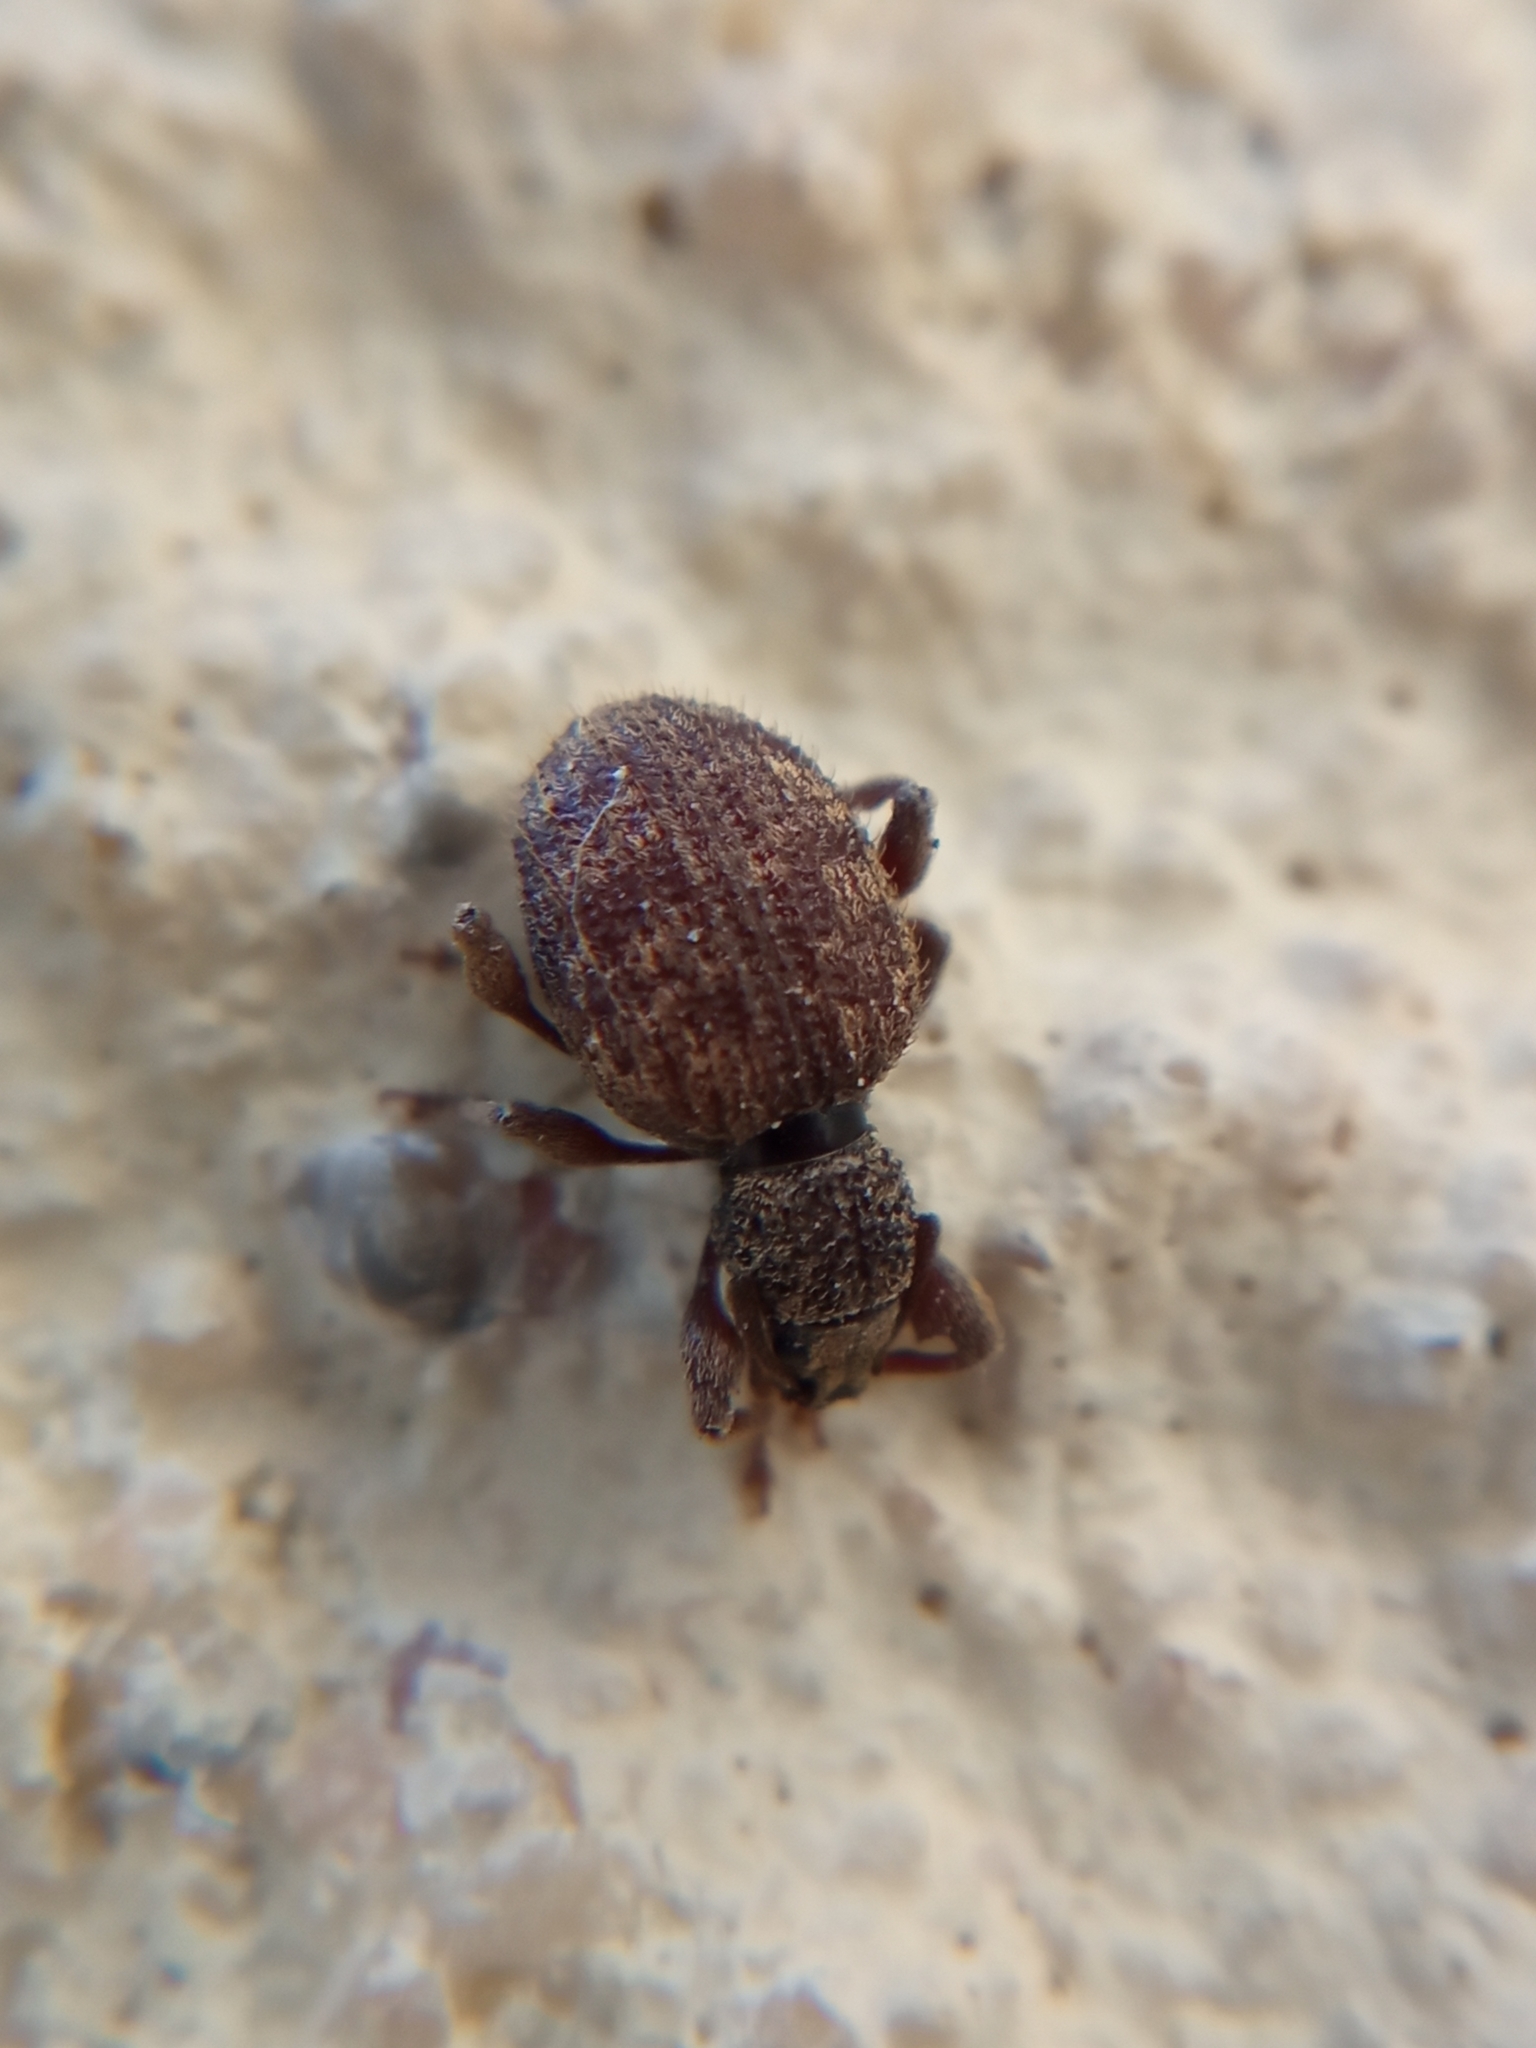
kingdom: Animalia
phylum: Arthropoda
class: Insecta
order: Coleoptera
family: Curculionidae
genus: Otiorhynchus
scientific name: Otiorhynchus crataegi
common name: Privet weevil
